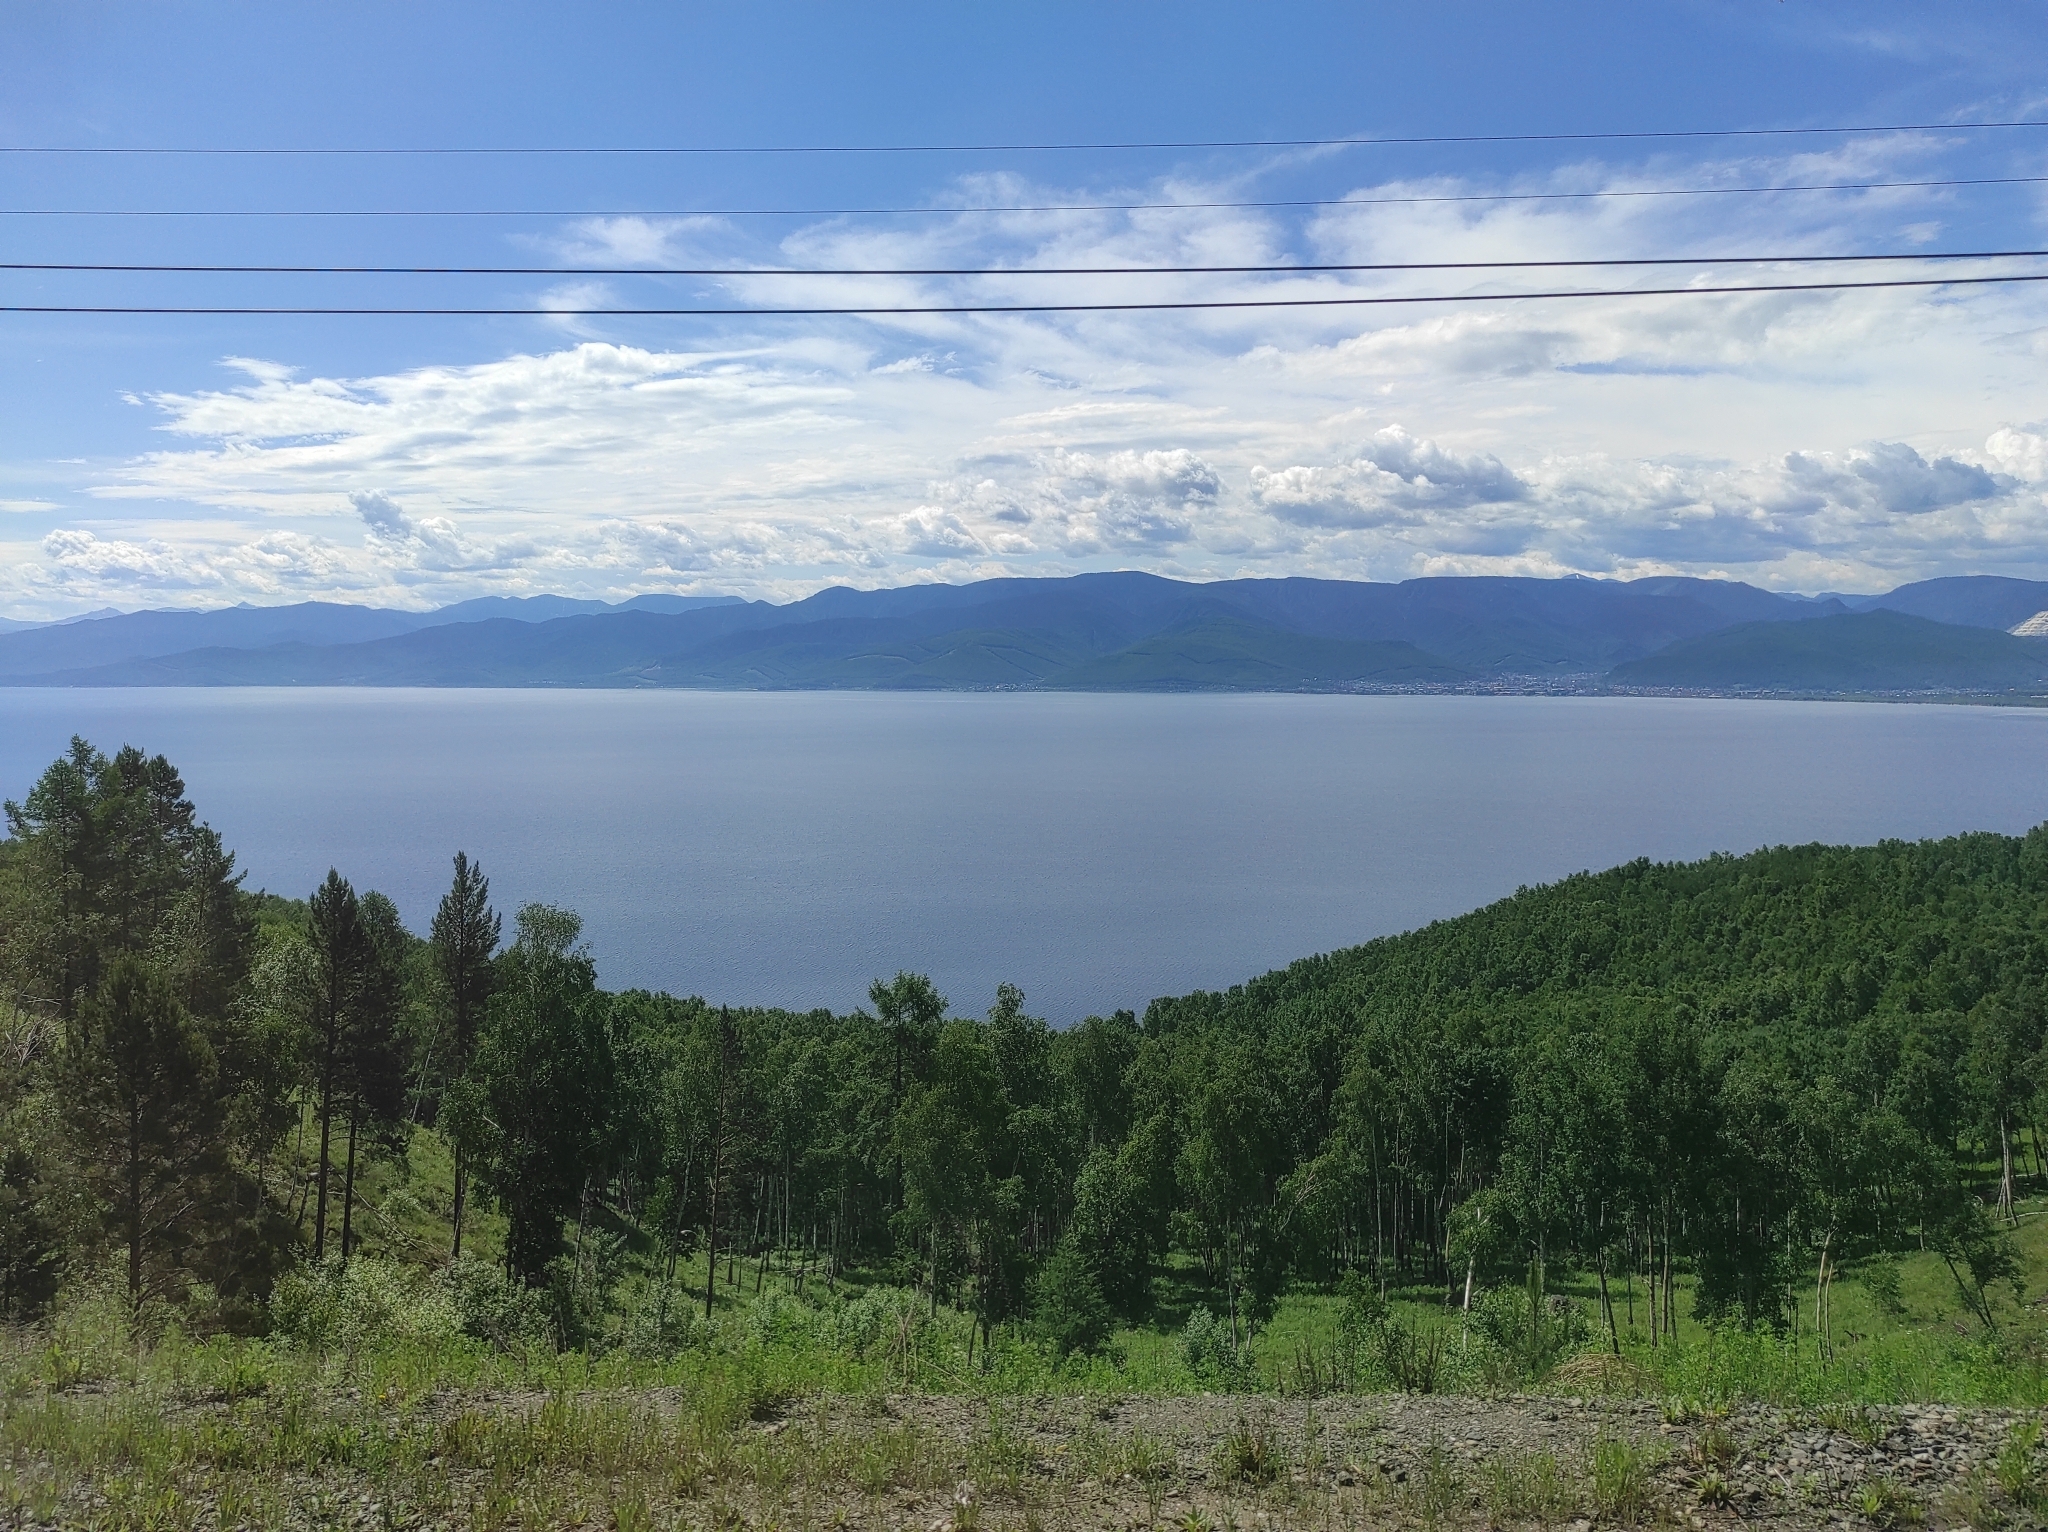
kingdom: Plantae
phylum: Tracheophyta
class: Magnoliopsida
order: Fagales
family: Betulaceae
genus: Betula
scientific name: Betula pendula
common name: Silver birch
